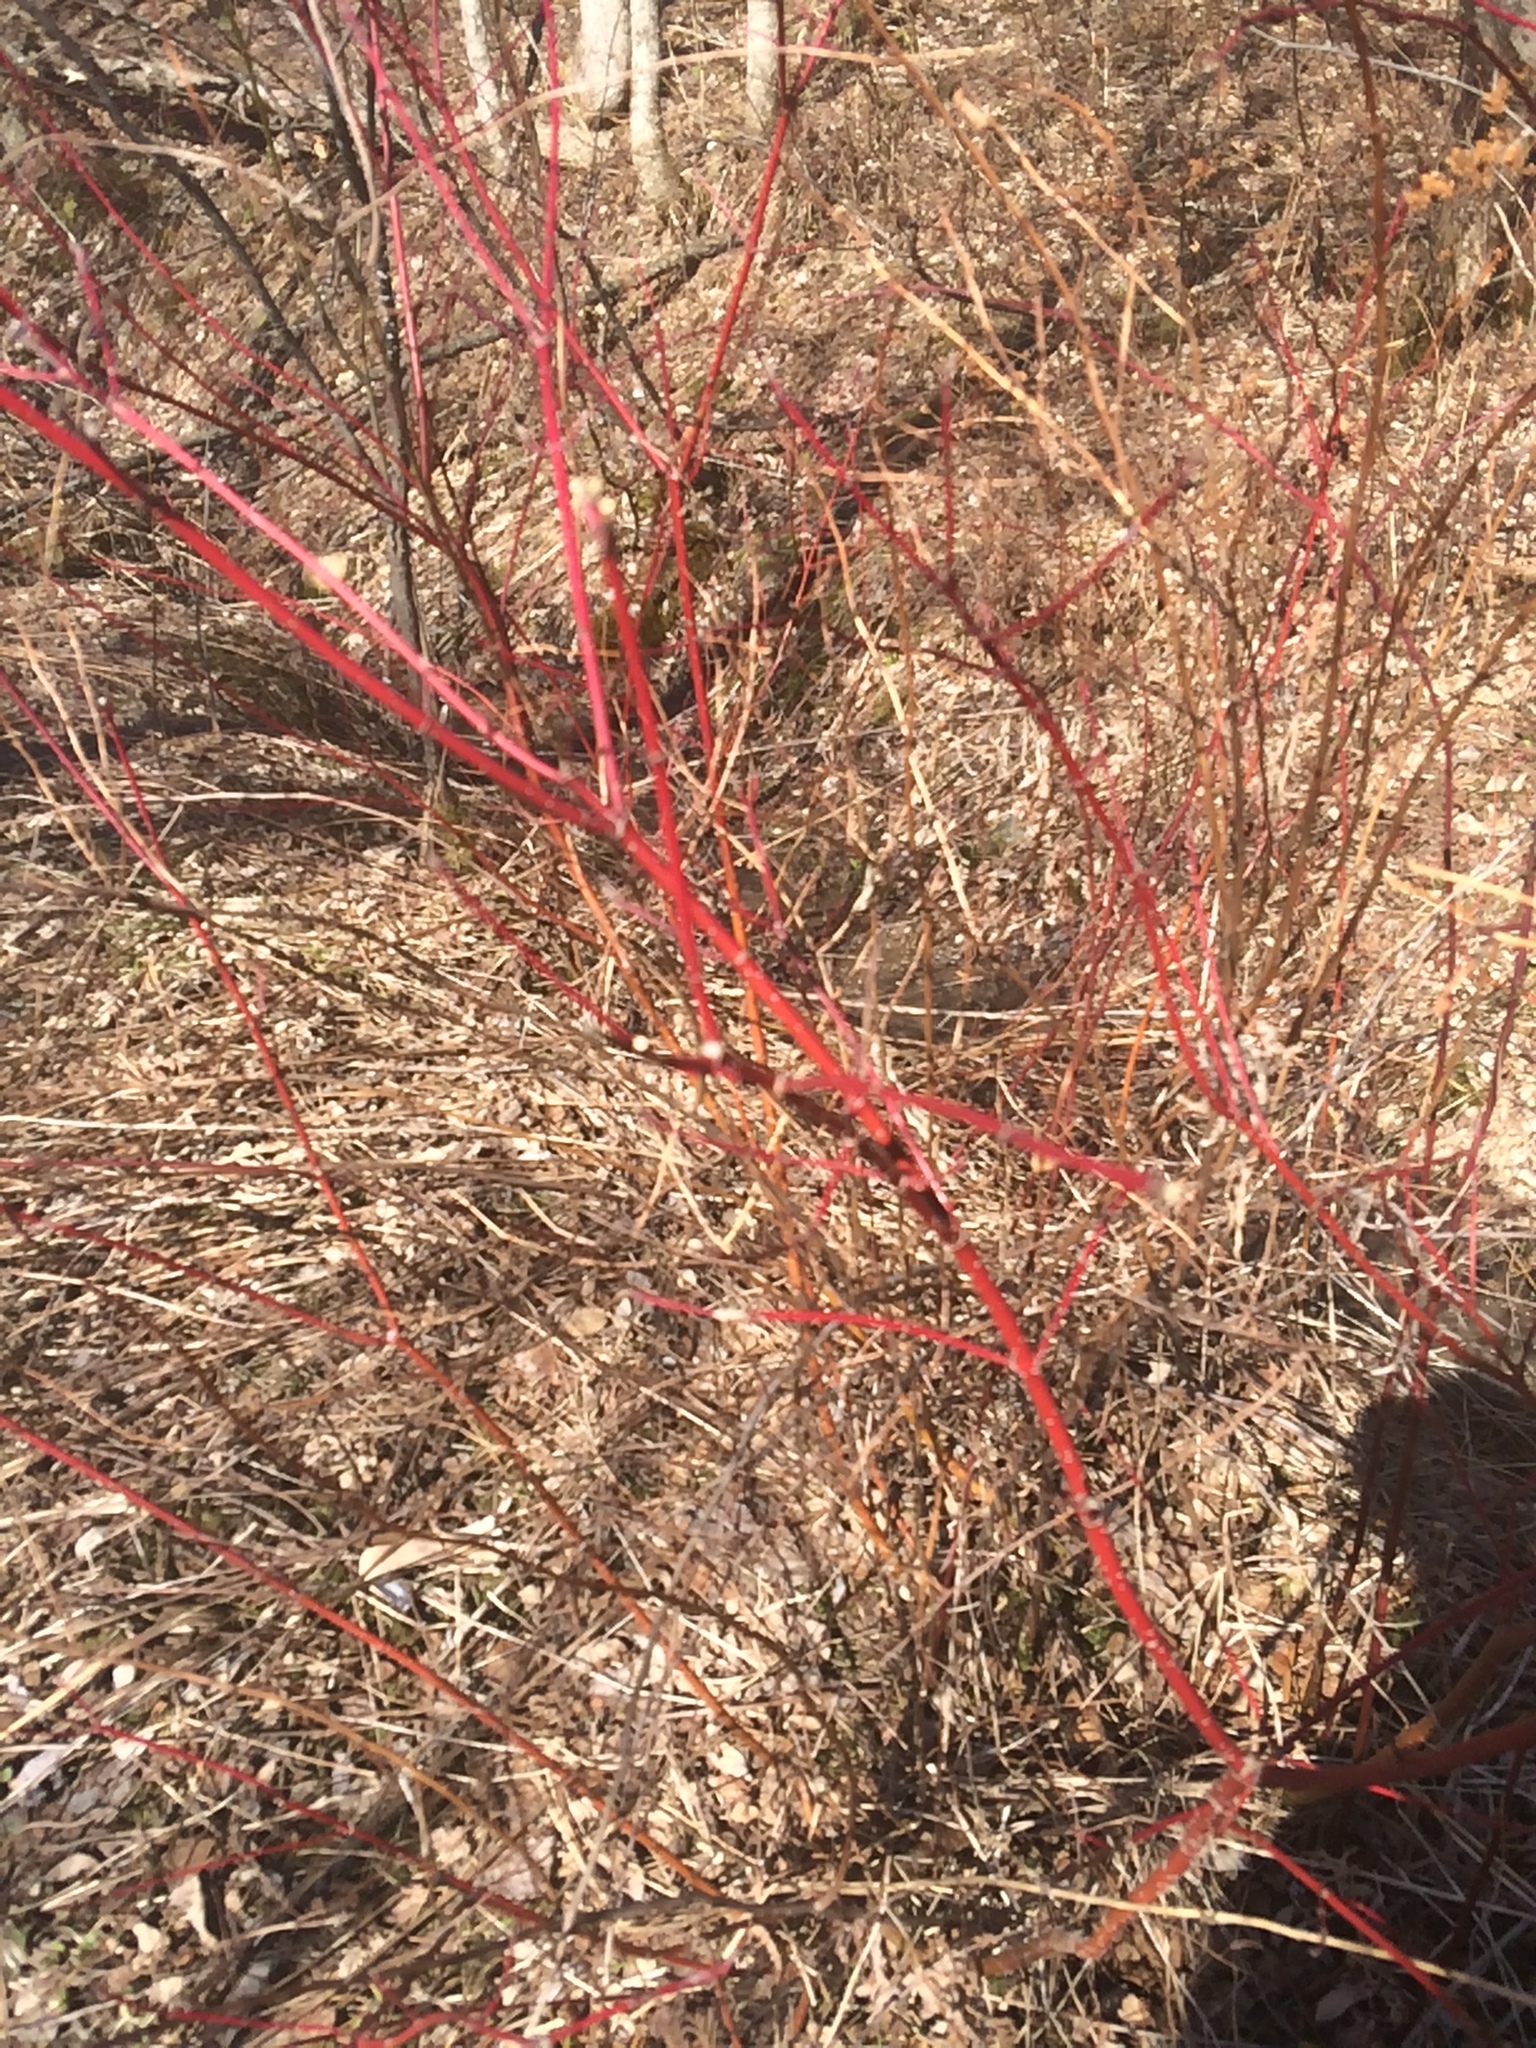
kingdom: Plantae
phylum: Tracheophyta
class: Magnoliopsida
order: Cornales
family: Cornaceae
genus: Cornus
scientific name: Cornus sericea
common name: Red-osier dogwood
